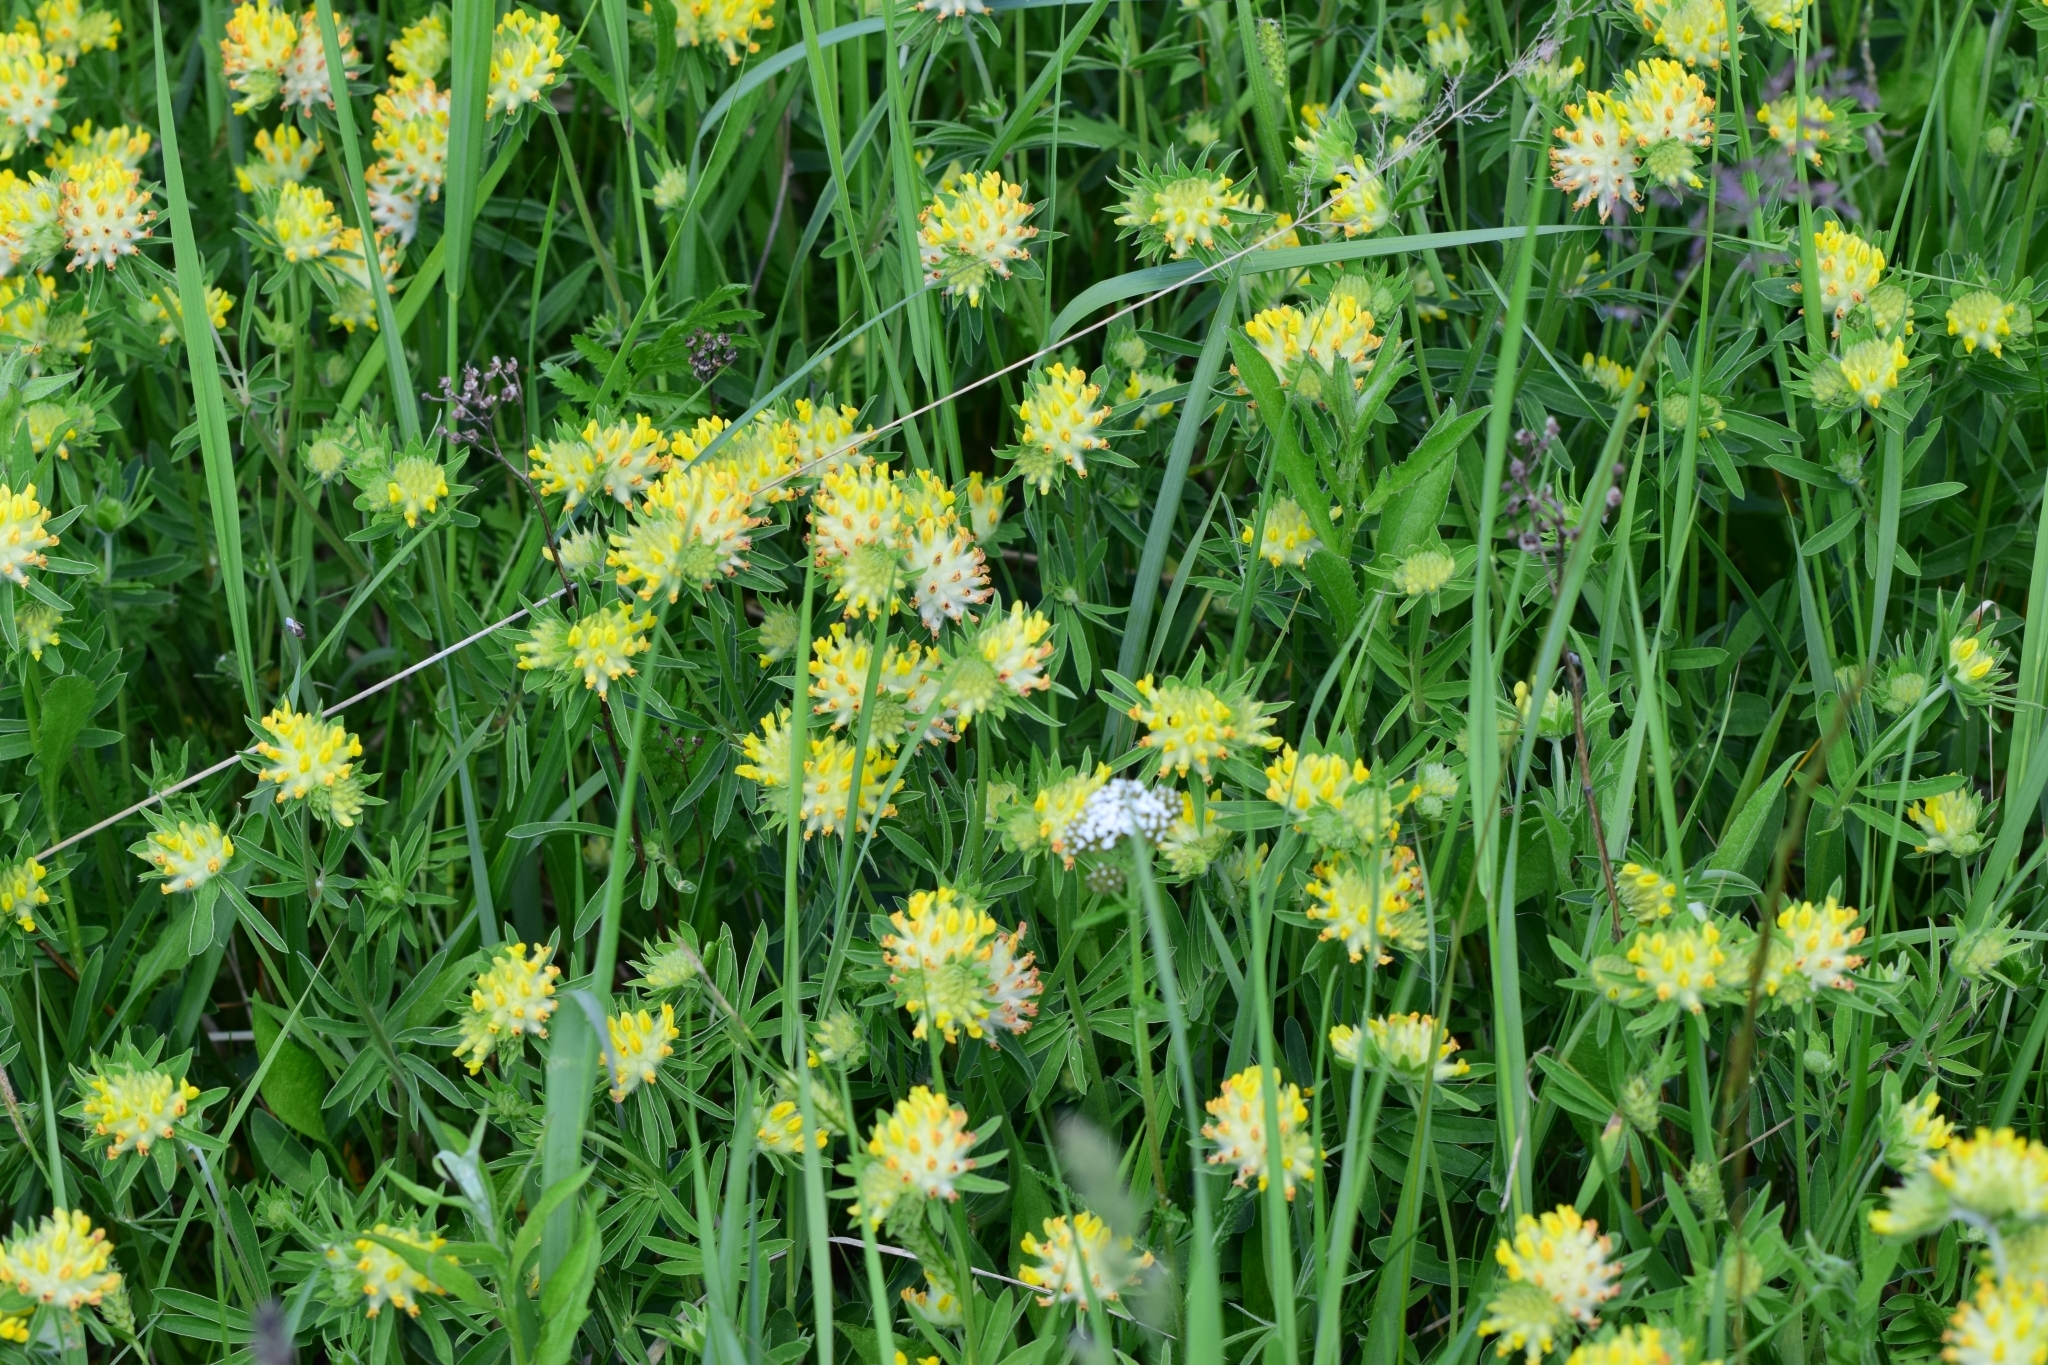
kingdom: Plantae
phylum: Tracheophyta
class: Magnoliopsida
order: Fabales
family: Fabaceae
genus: Anthyllis
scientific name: Anthyllis vulneraria
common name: Kidney vetch
